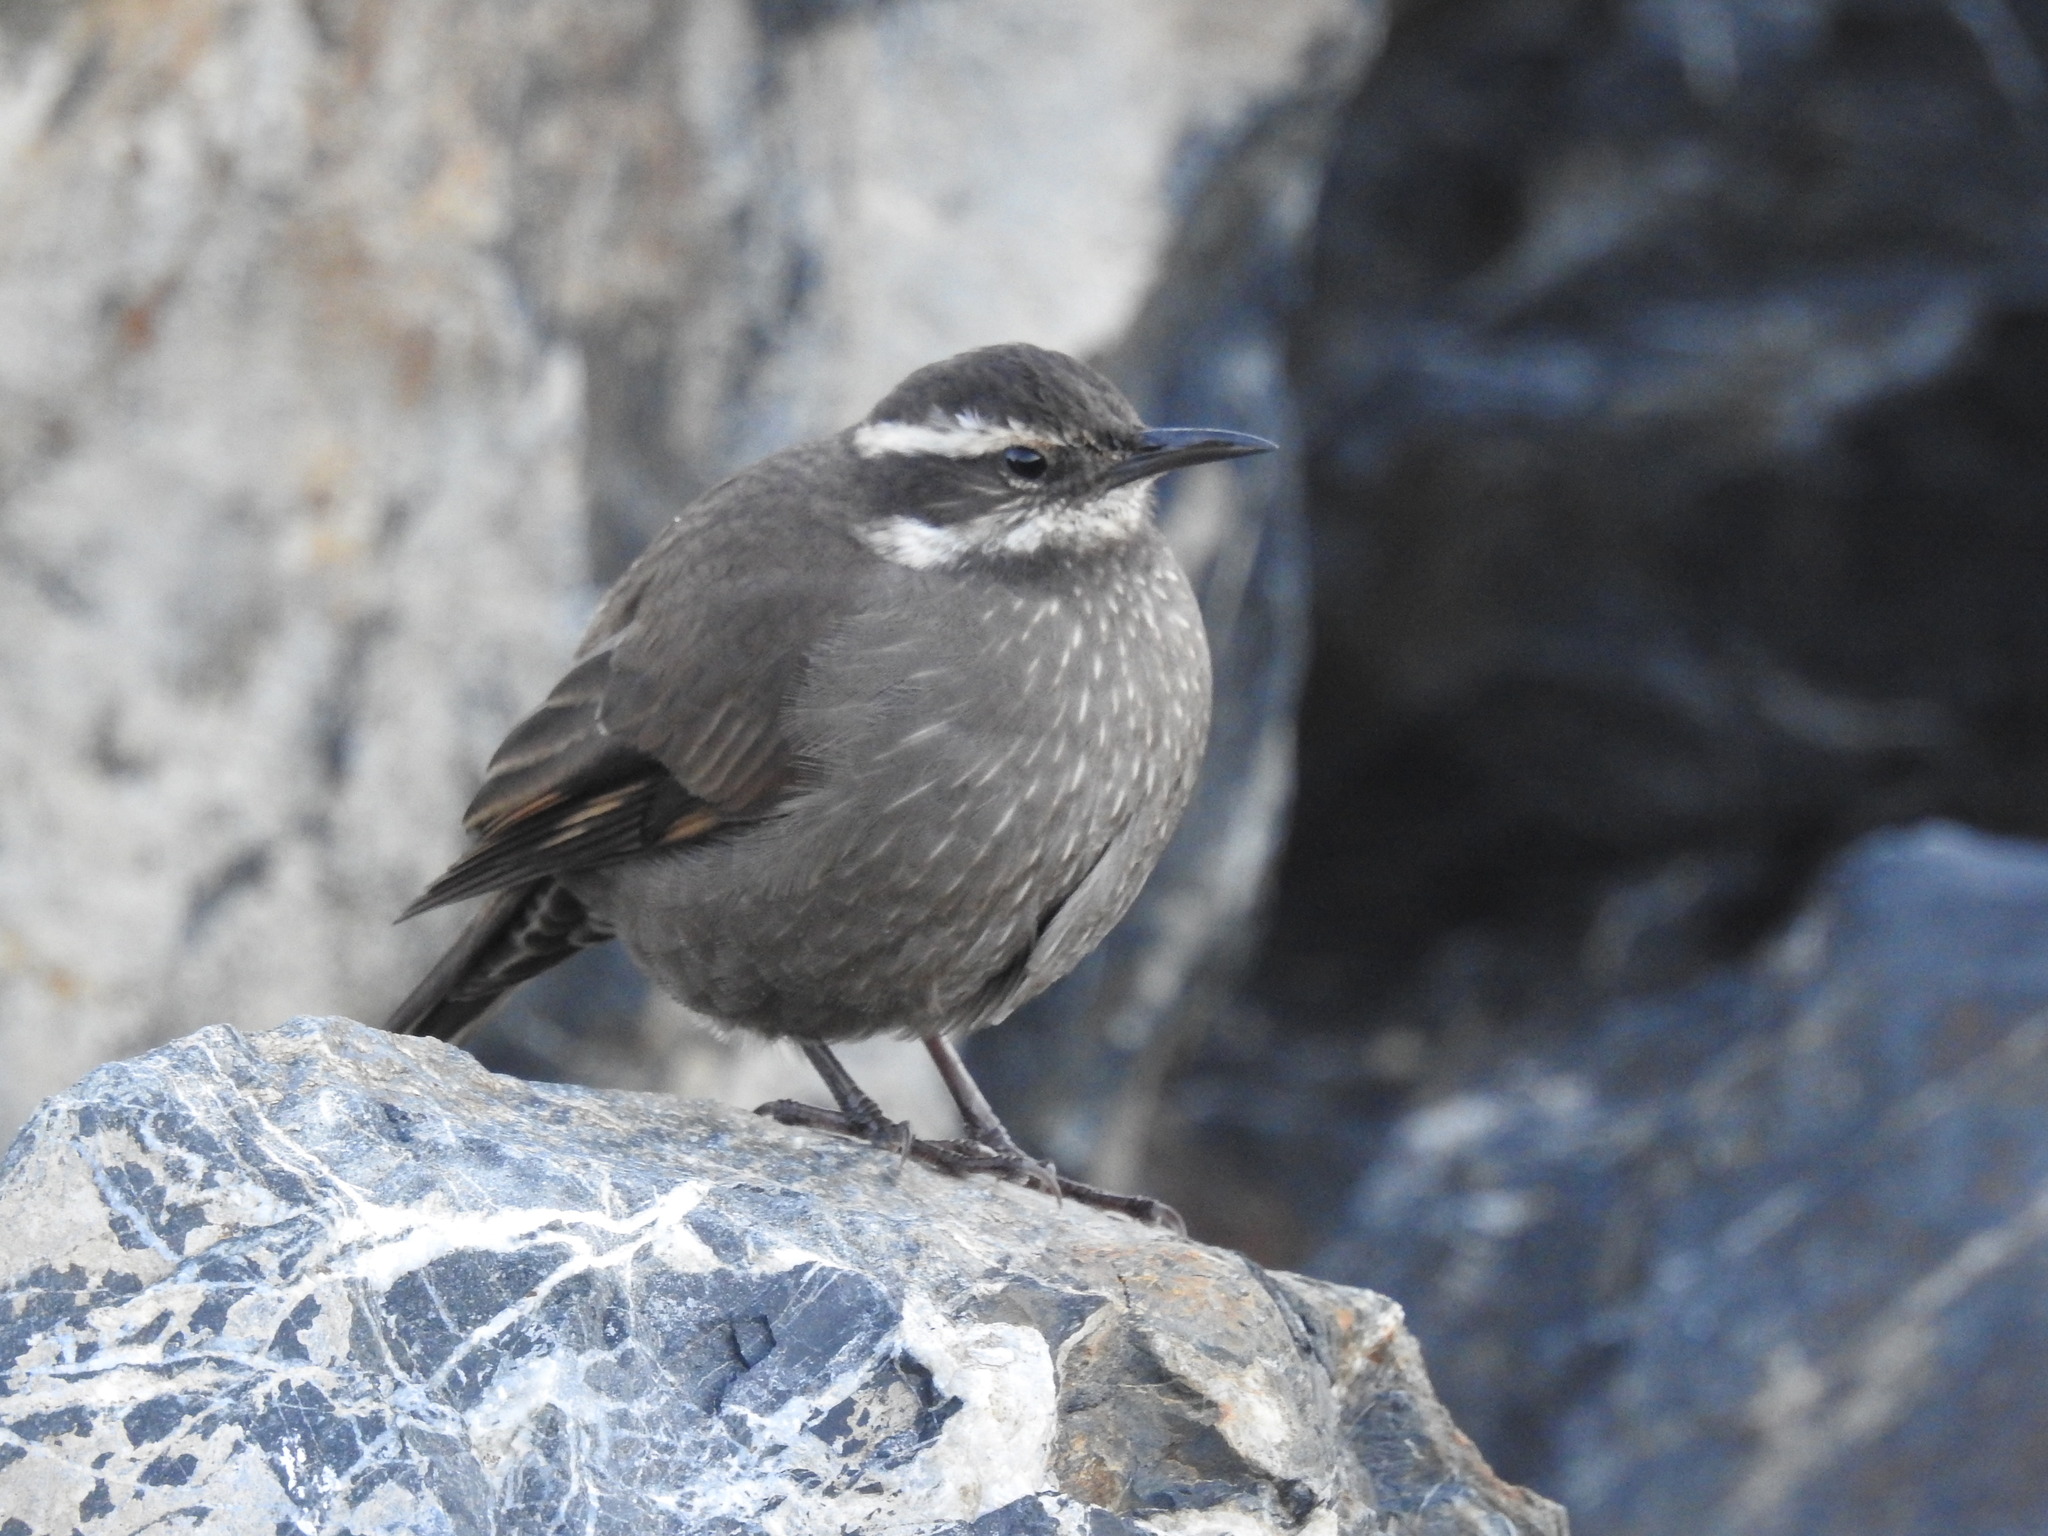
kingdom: Animalia
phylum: Chordata
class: Aves
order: Passeriformes
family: Furnariidae
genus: Cinclodes
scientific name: Cinclodes patagonicus
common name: Dark-bellied cinclodes
